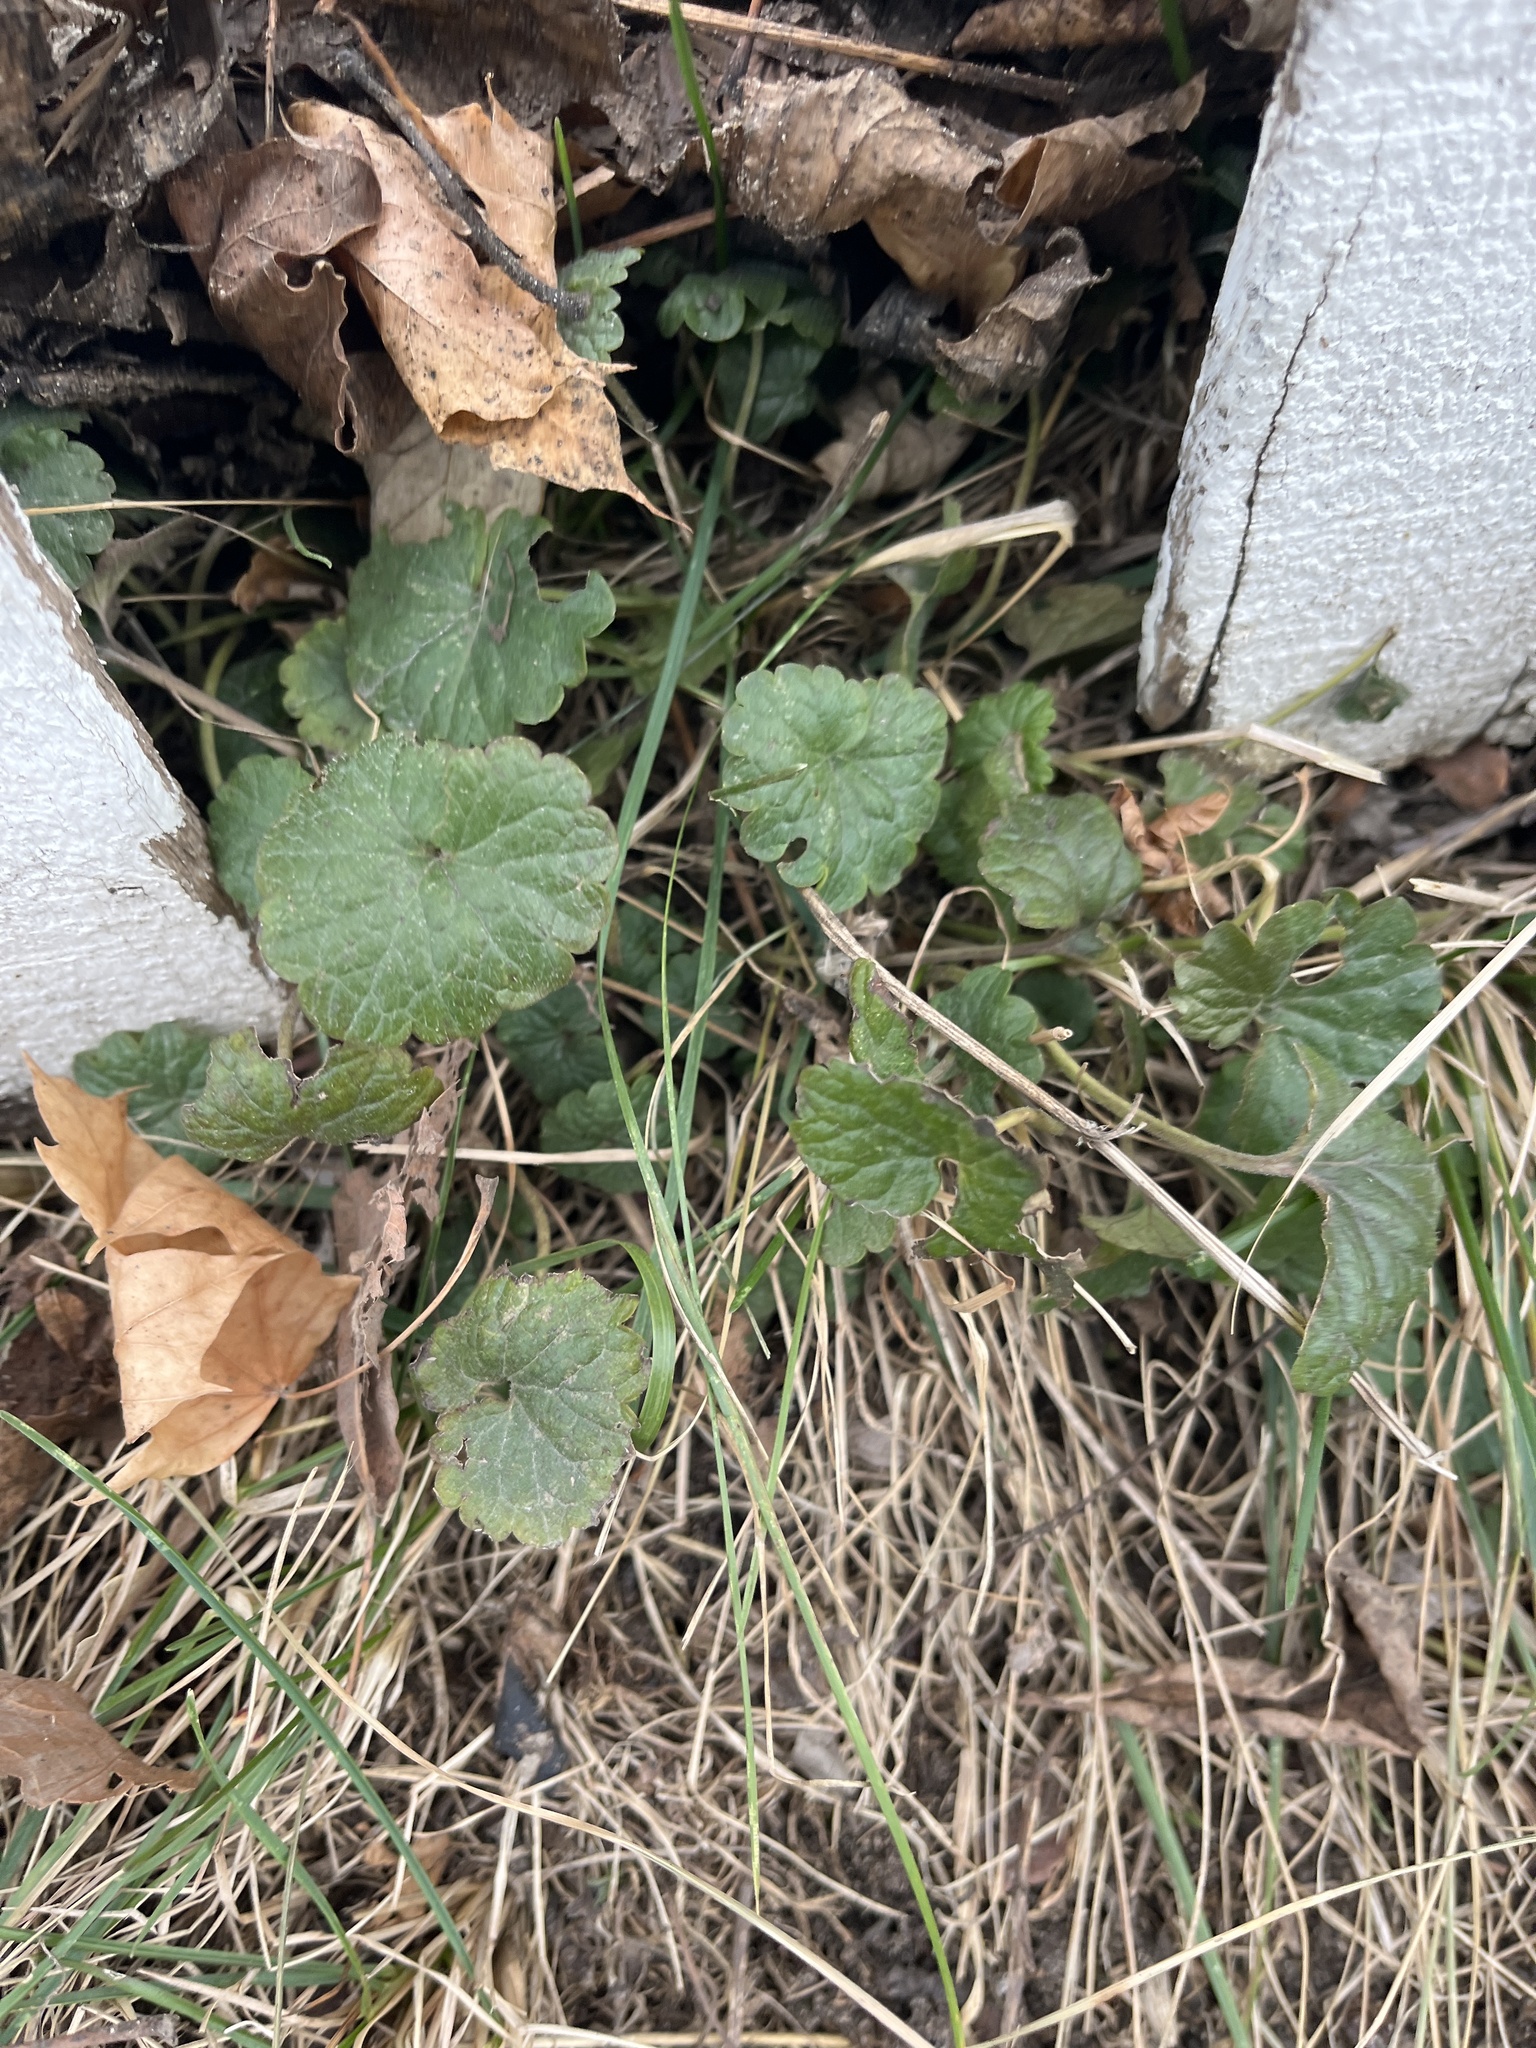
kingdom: Plantae
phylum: Tracheophyta
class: Magnoliopsida
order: Lamiales
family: Lamiaceae
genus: Glechoma
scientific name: Glechoma hederacea
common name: Ground ivy
